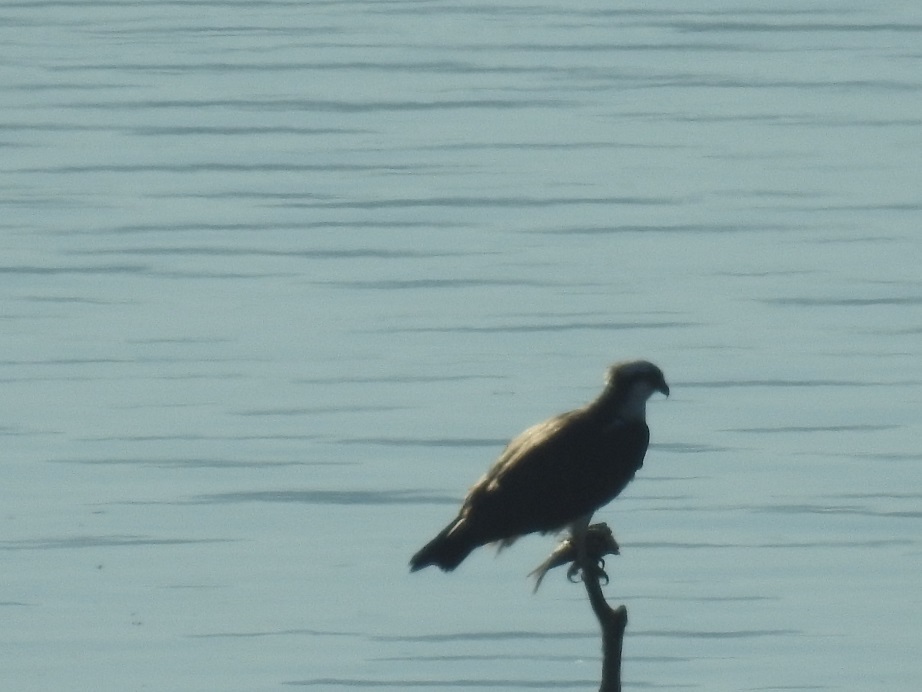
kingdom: Animalia
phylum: Chordata
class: Aves
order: Accipitriformes
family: Pandionidae
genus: Pandion
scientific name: Pandion haliaetus
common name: Osprey
